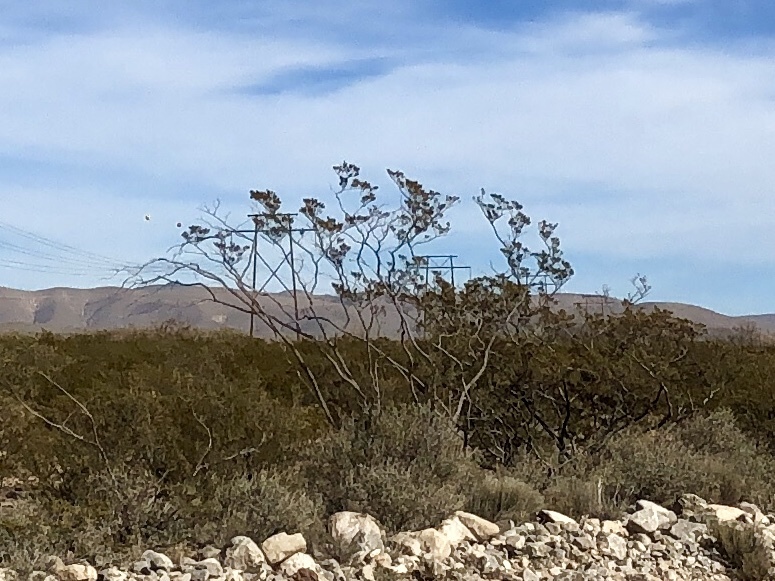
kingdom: Plantae
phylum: Tracheophyta
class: Magnoliopsida
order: Zygophyllales
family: Zygophyllaceae
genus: Larrea
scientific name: Larrea tridentata
